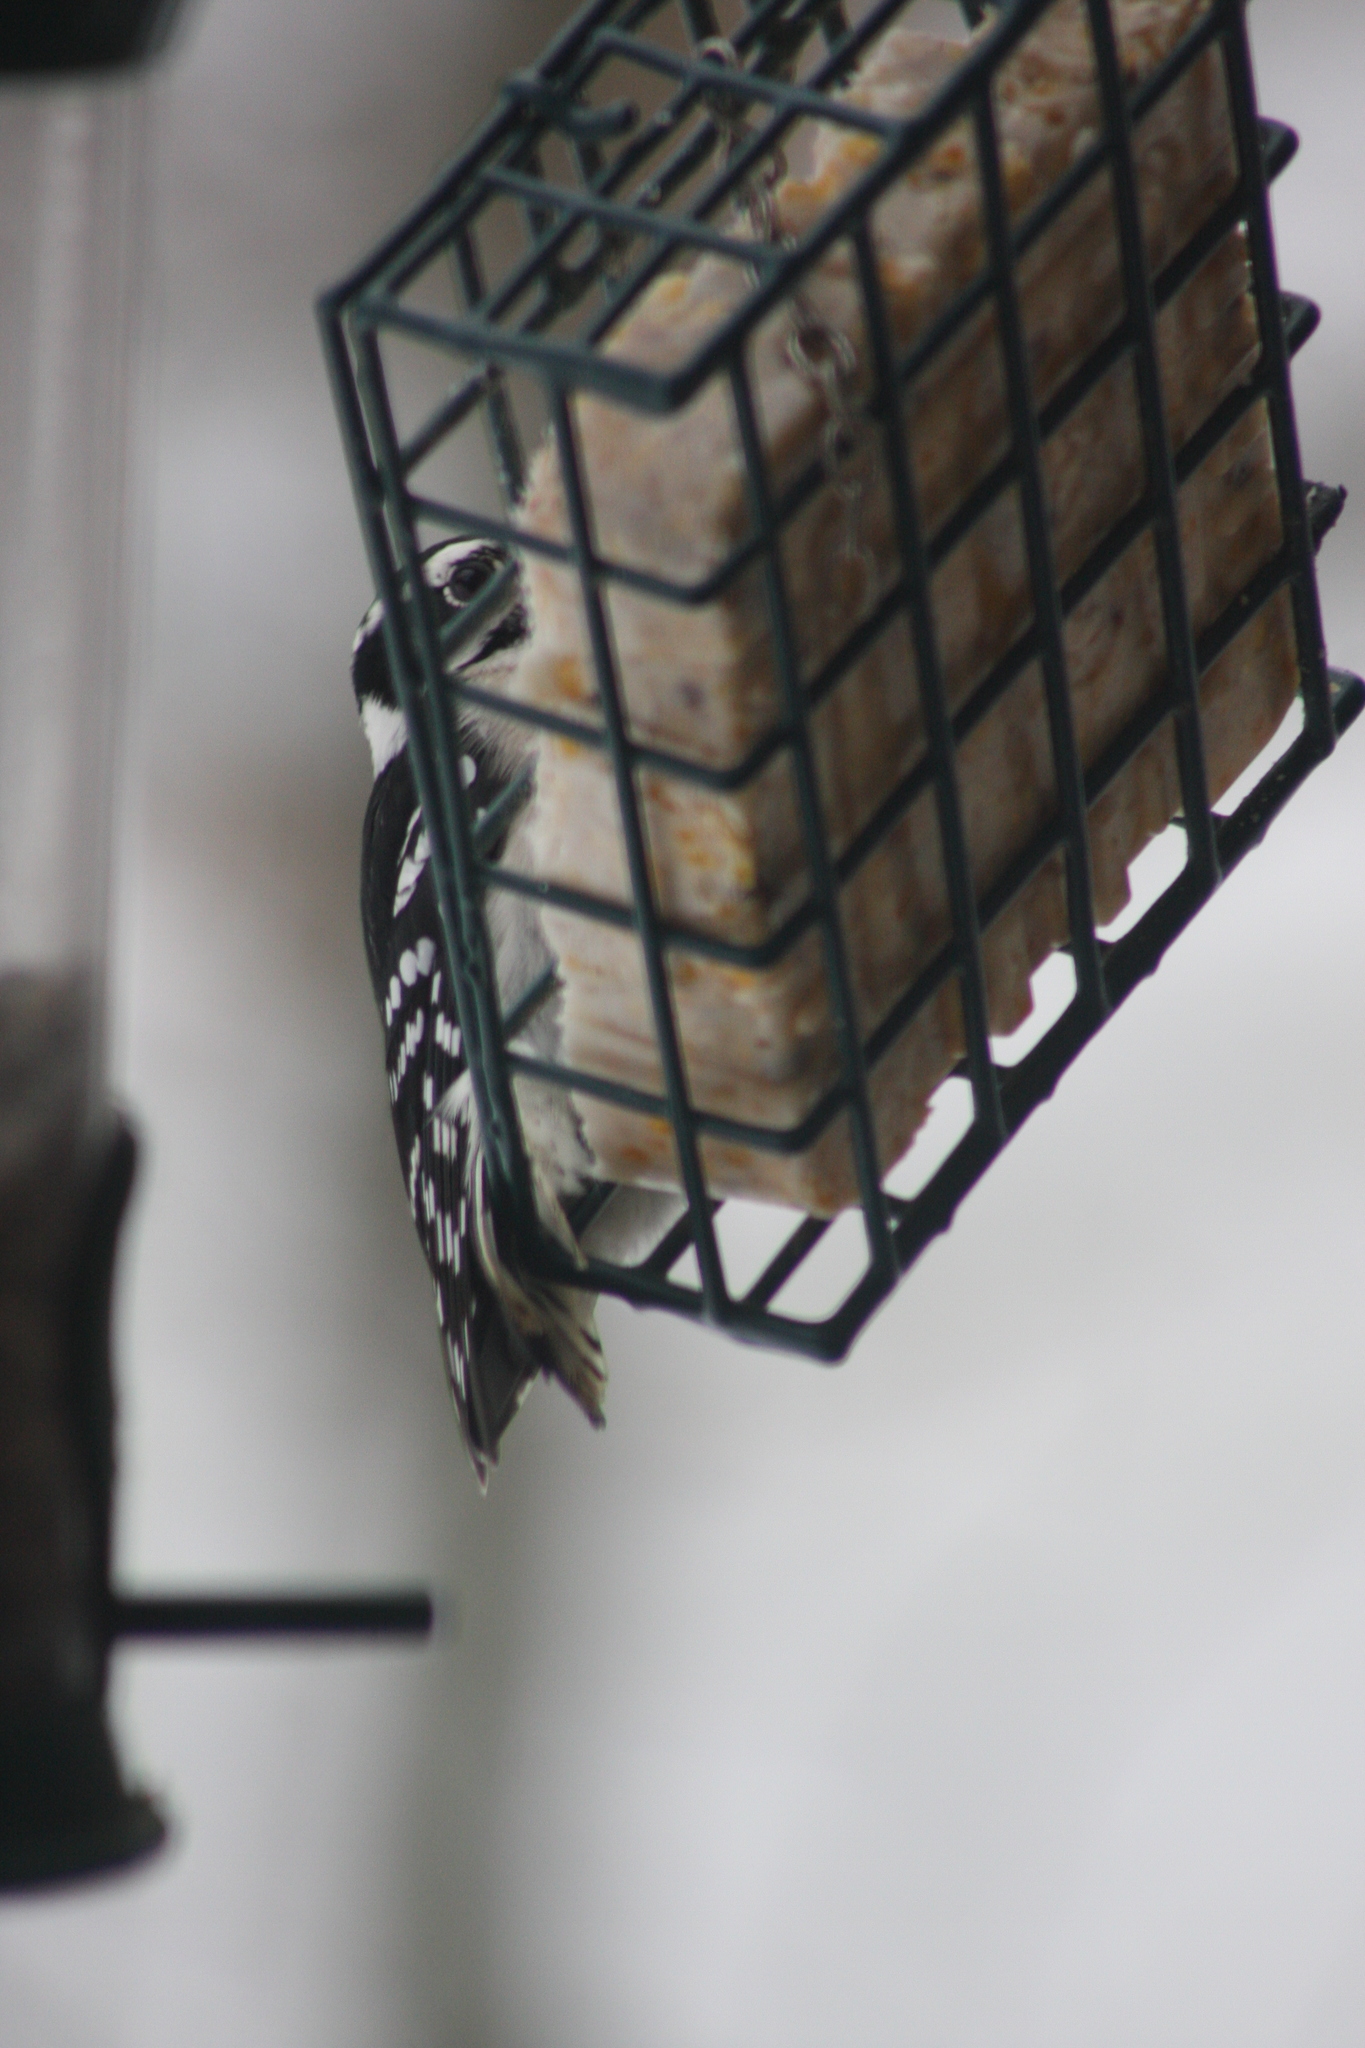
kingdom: Animalia
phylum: Chordata
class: Aves
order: Piciformes
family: Picidae
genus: Dryobates
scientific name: Dryobates pubescens
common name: Downy woodpecker
